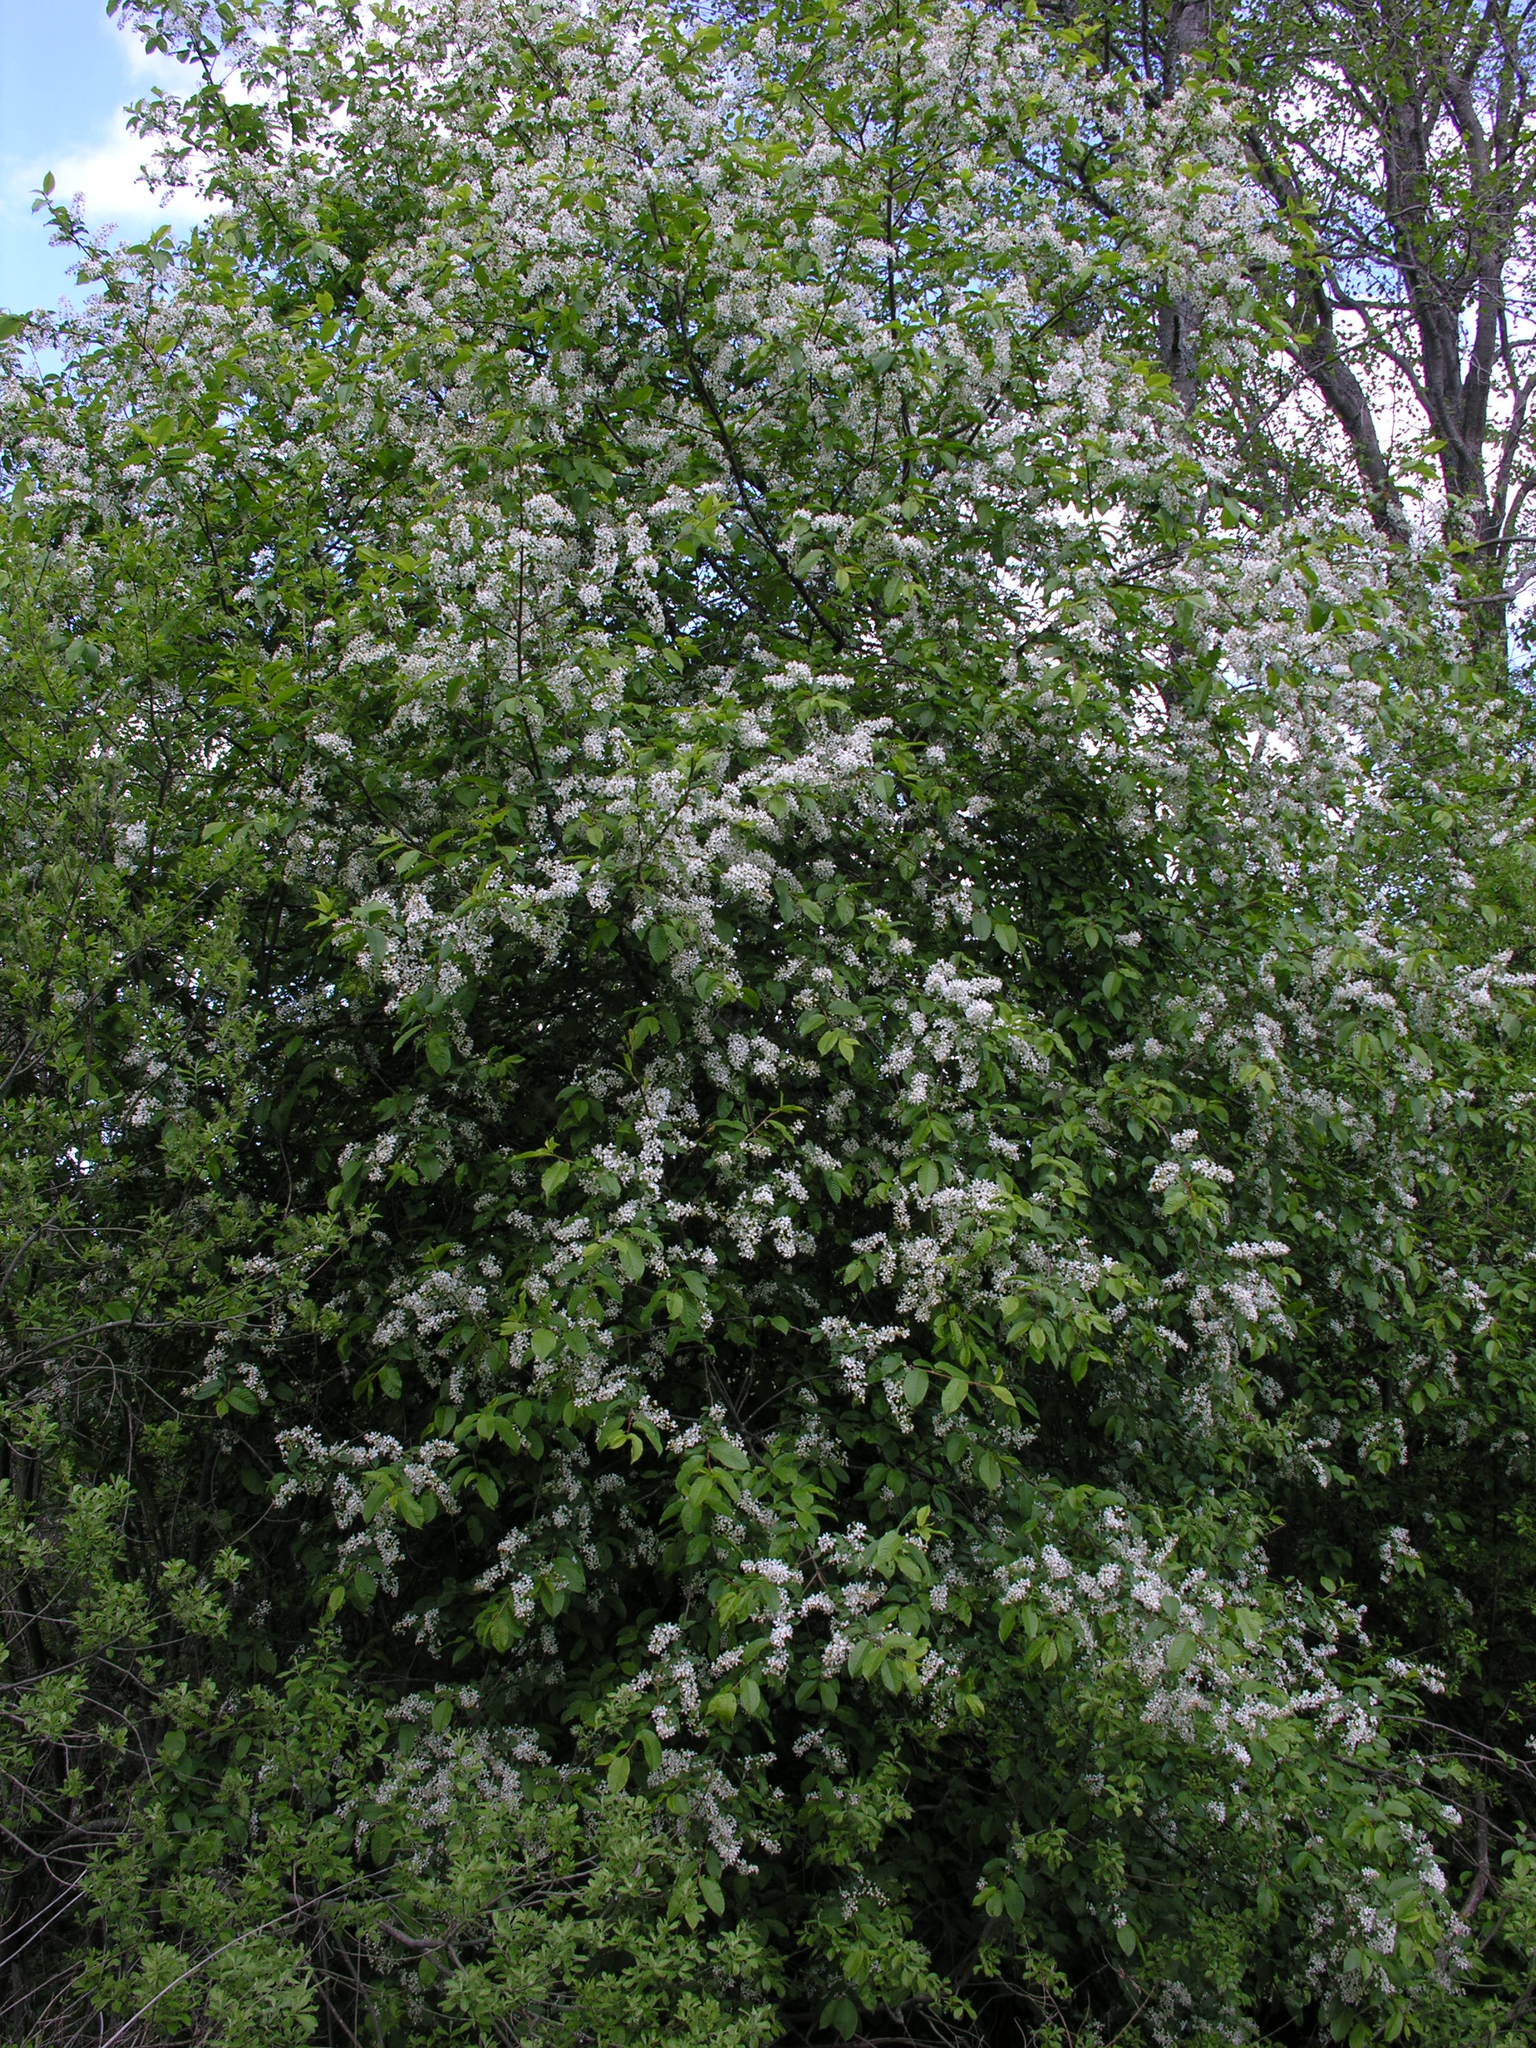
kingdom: Plantae
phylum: Tracheophyta
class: Magnoliopsida
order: Rosales
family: Rosaceae
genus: Prunus
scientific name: Prunus padus
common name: Bird cherry
